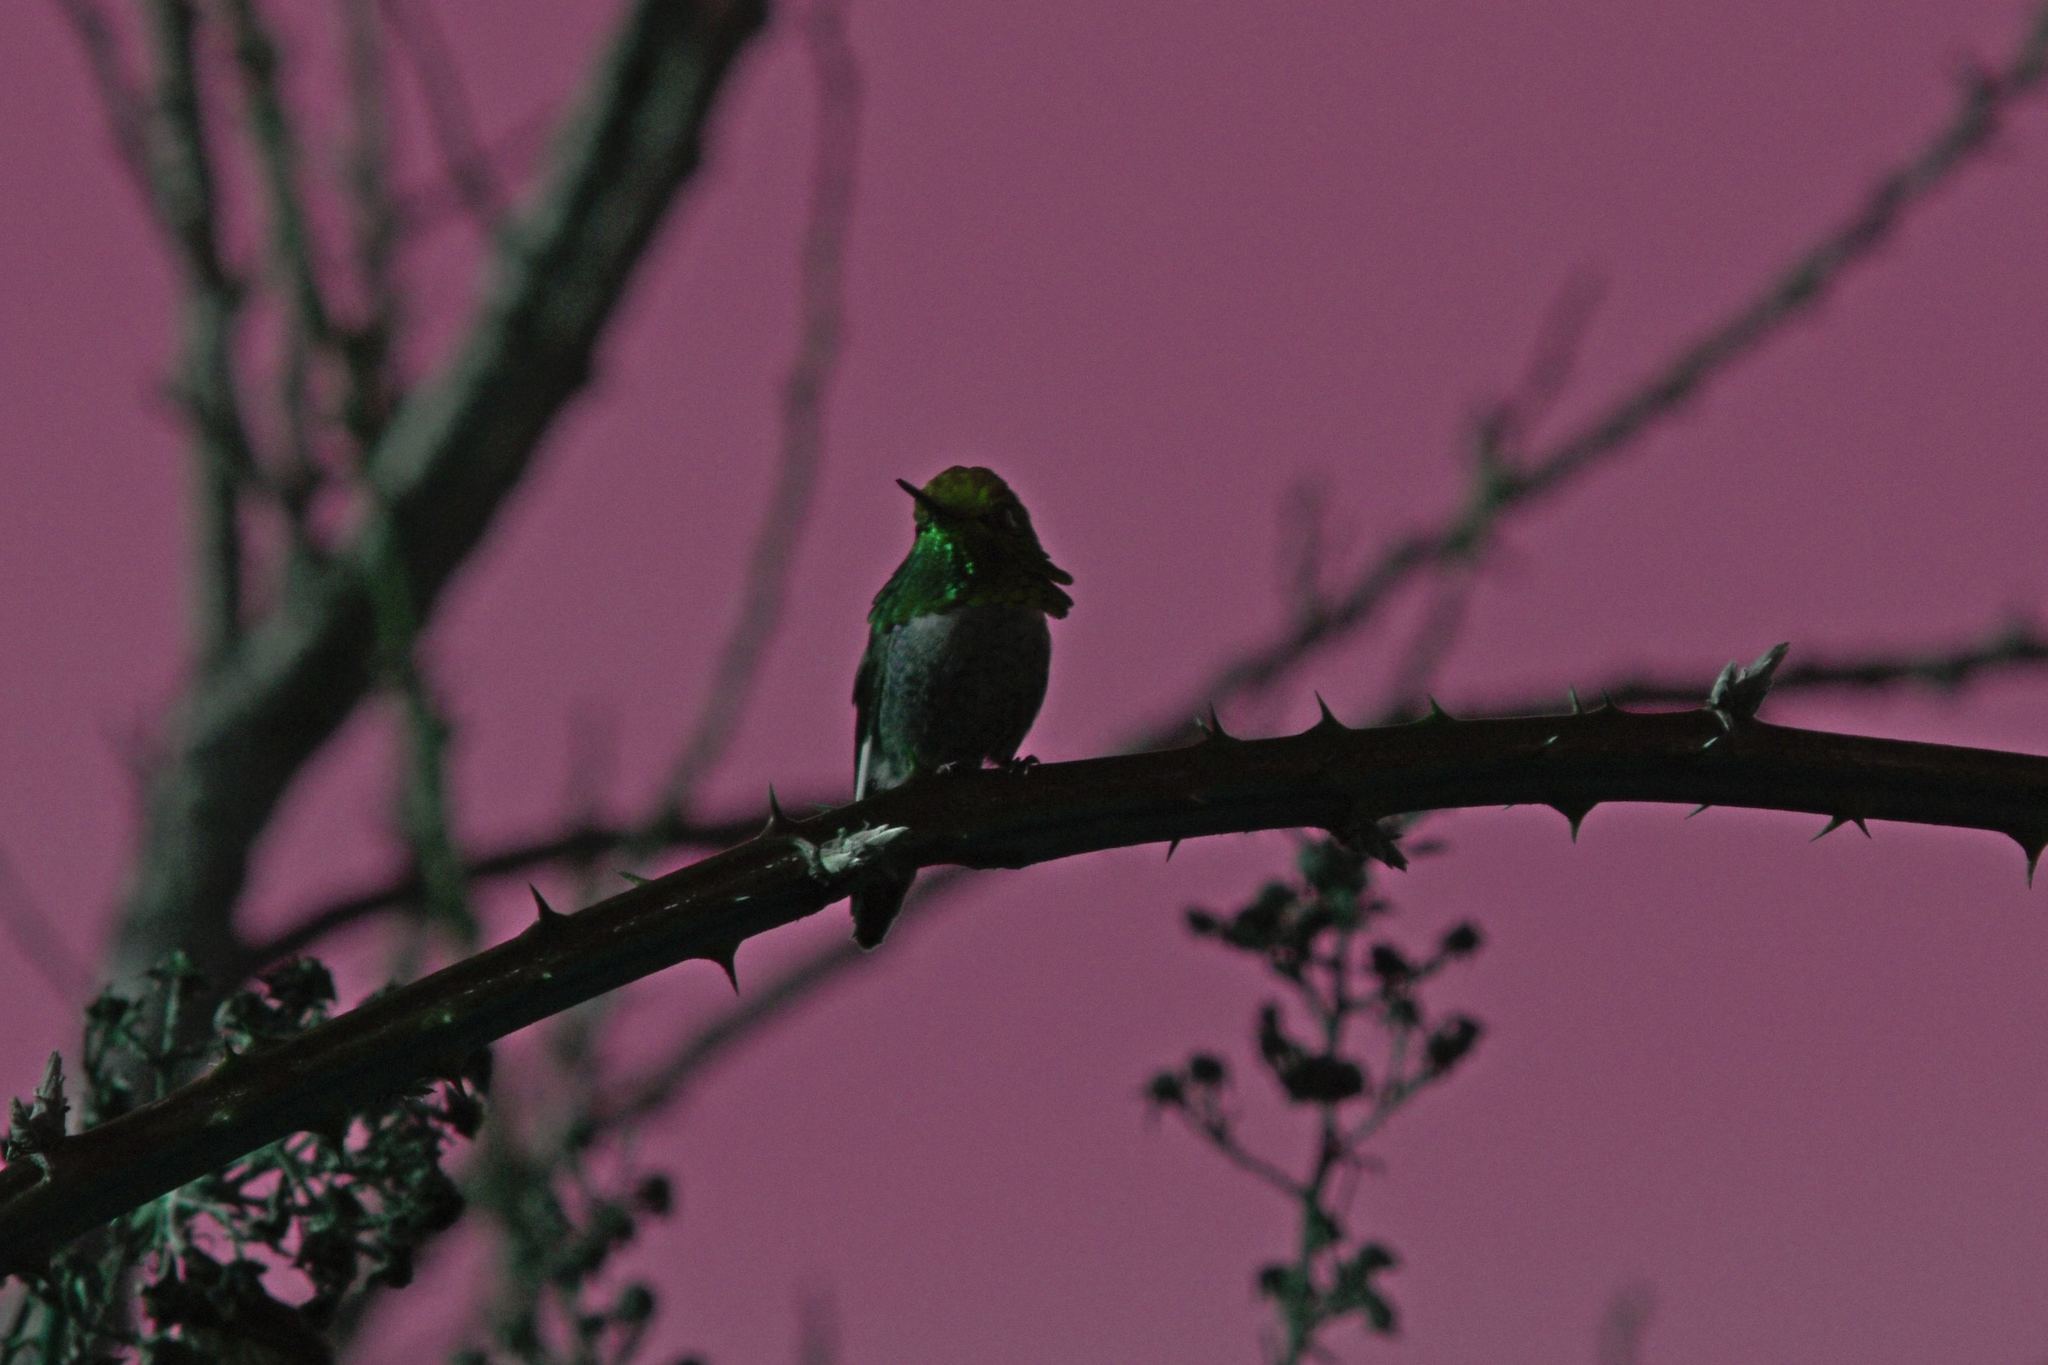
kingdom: Animalia
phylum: Chordata
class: Aves
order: Apodiformes
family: Trochilidae
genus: Calypte
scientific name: Calypte anna
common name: Anna's hummingbird
